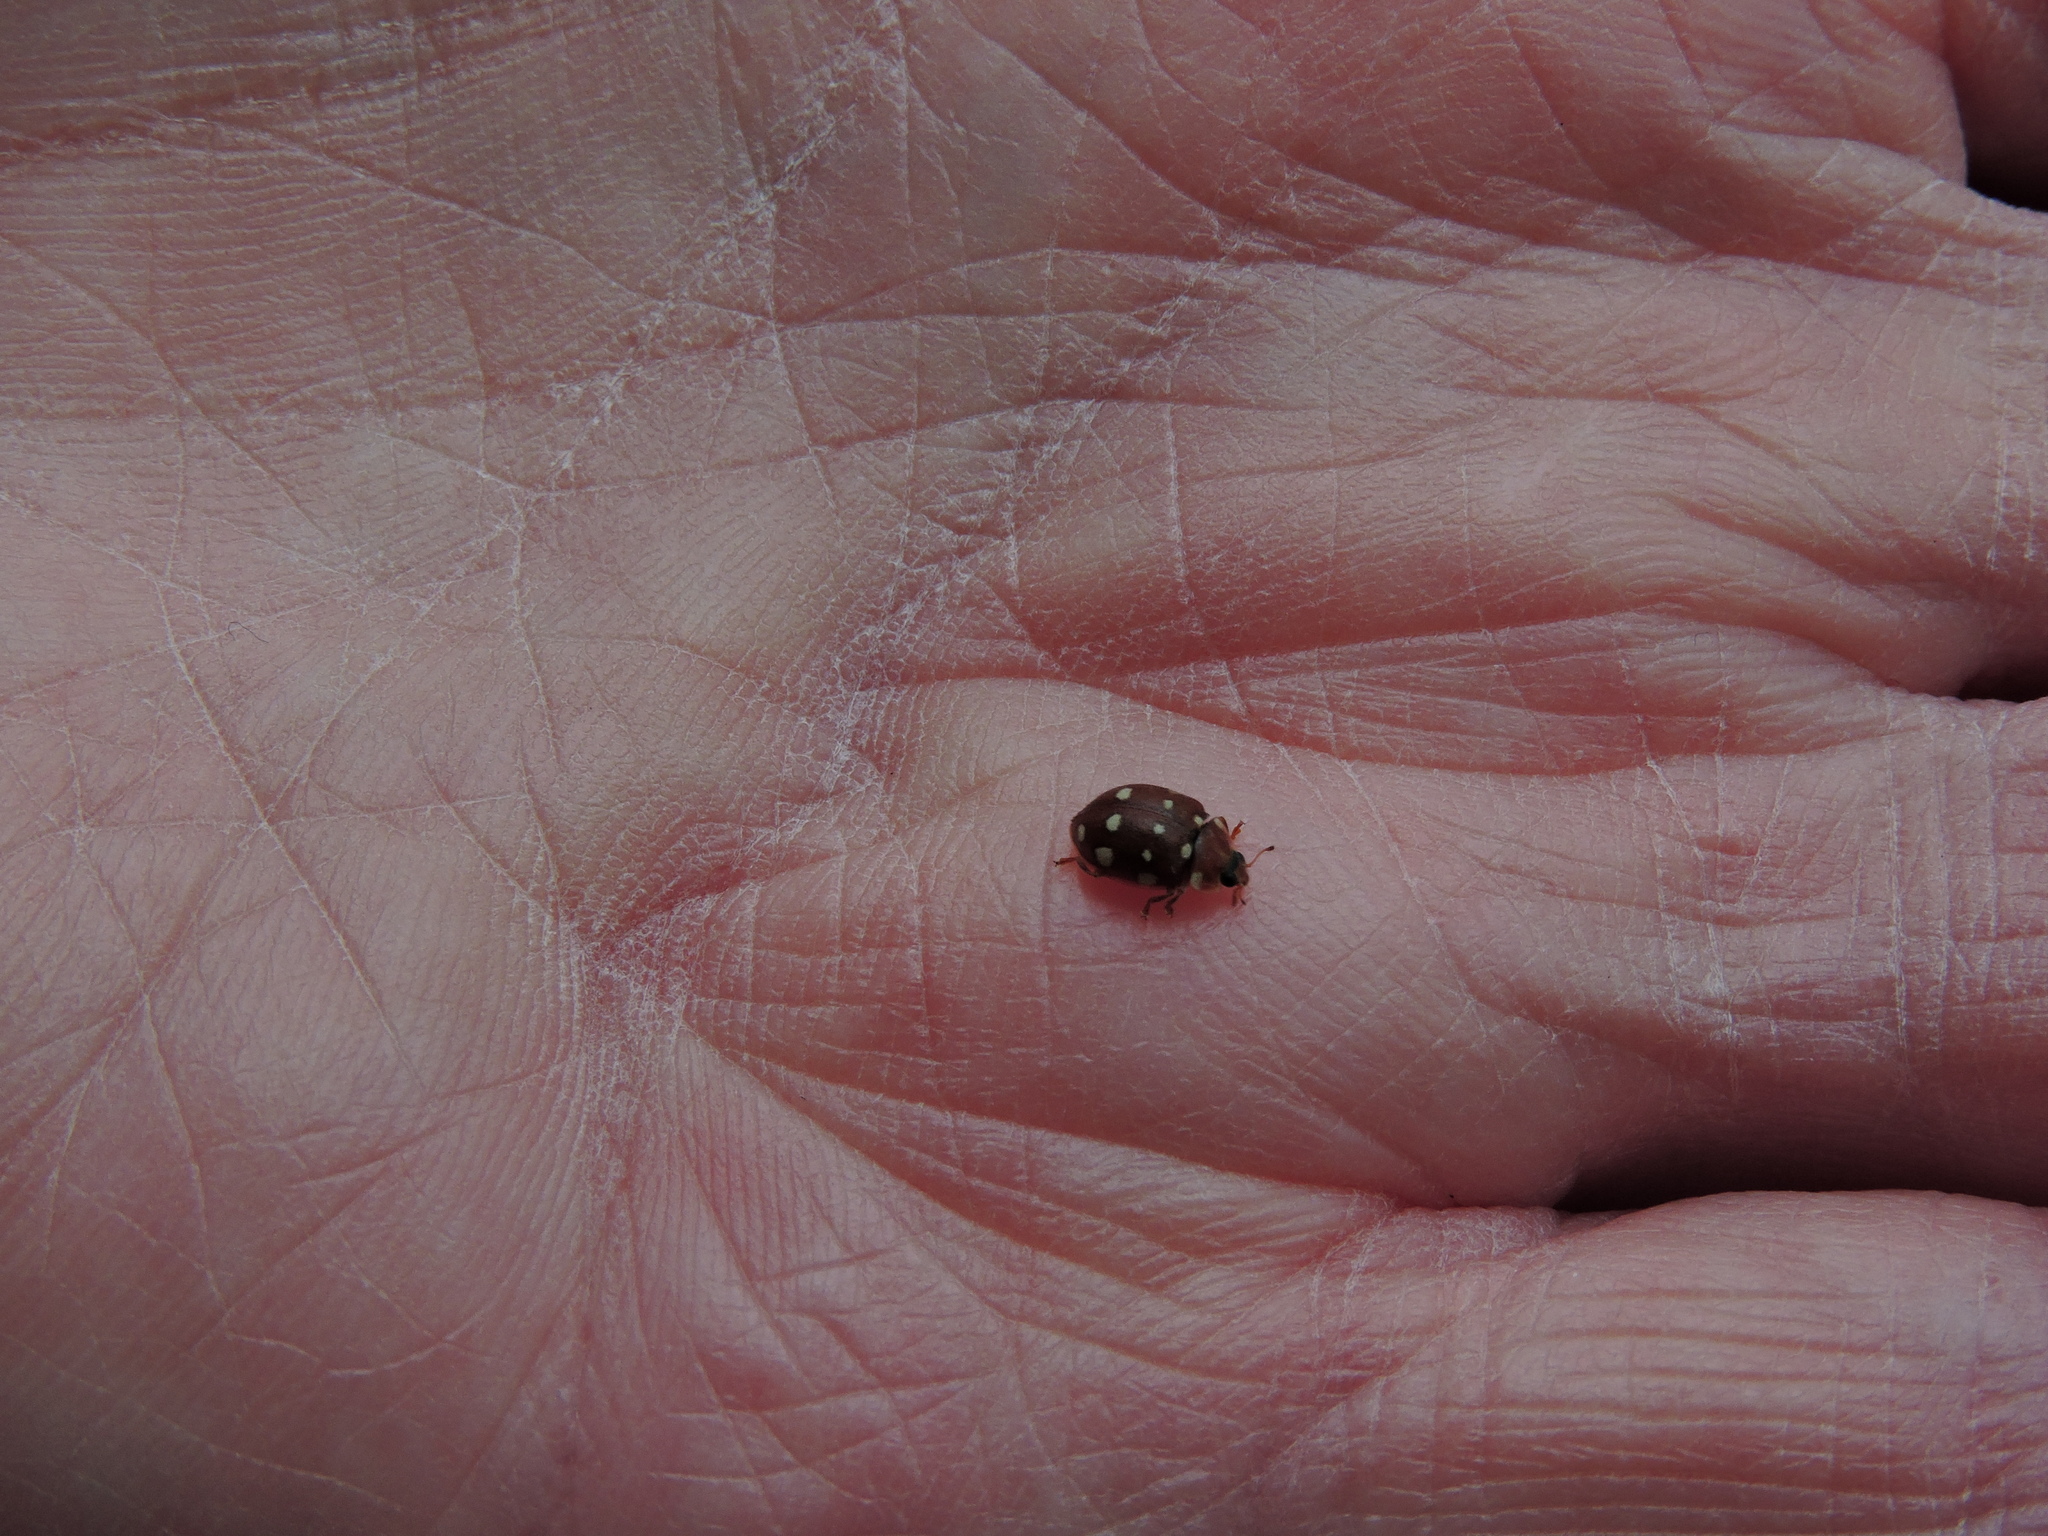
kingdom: Animalia
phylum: Arthropoda
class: Insecta
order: Coleoptera
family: Coccinellidae
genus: Calvia
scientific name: Calvia quatuordecimguttata
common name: Cream-spot ladybird
